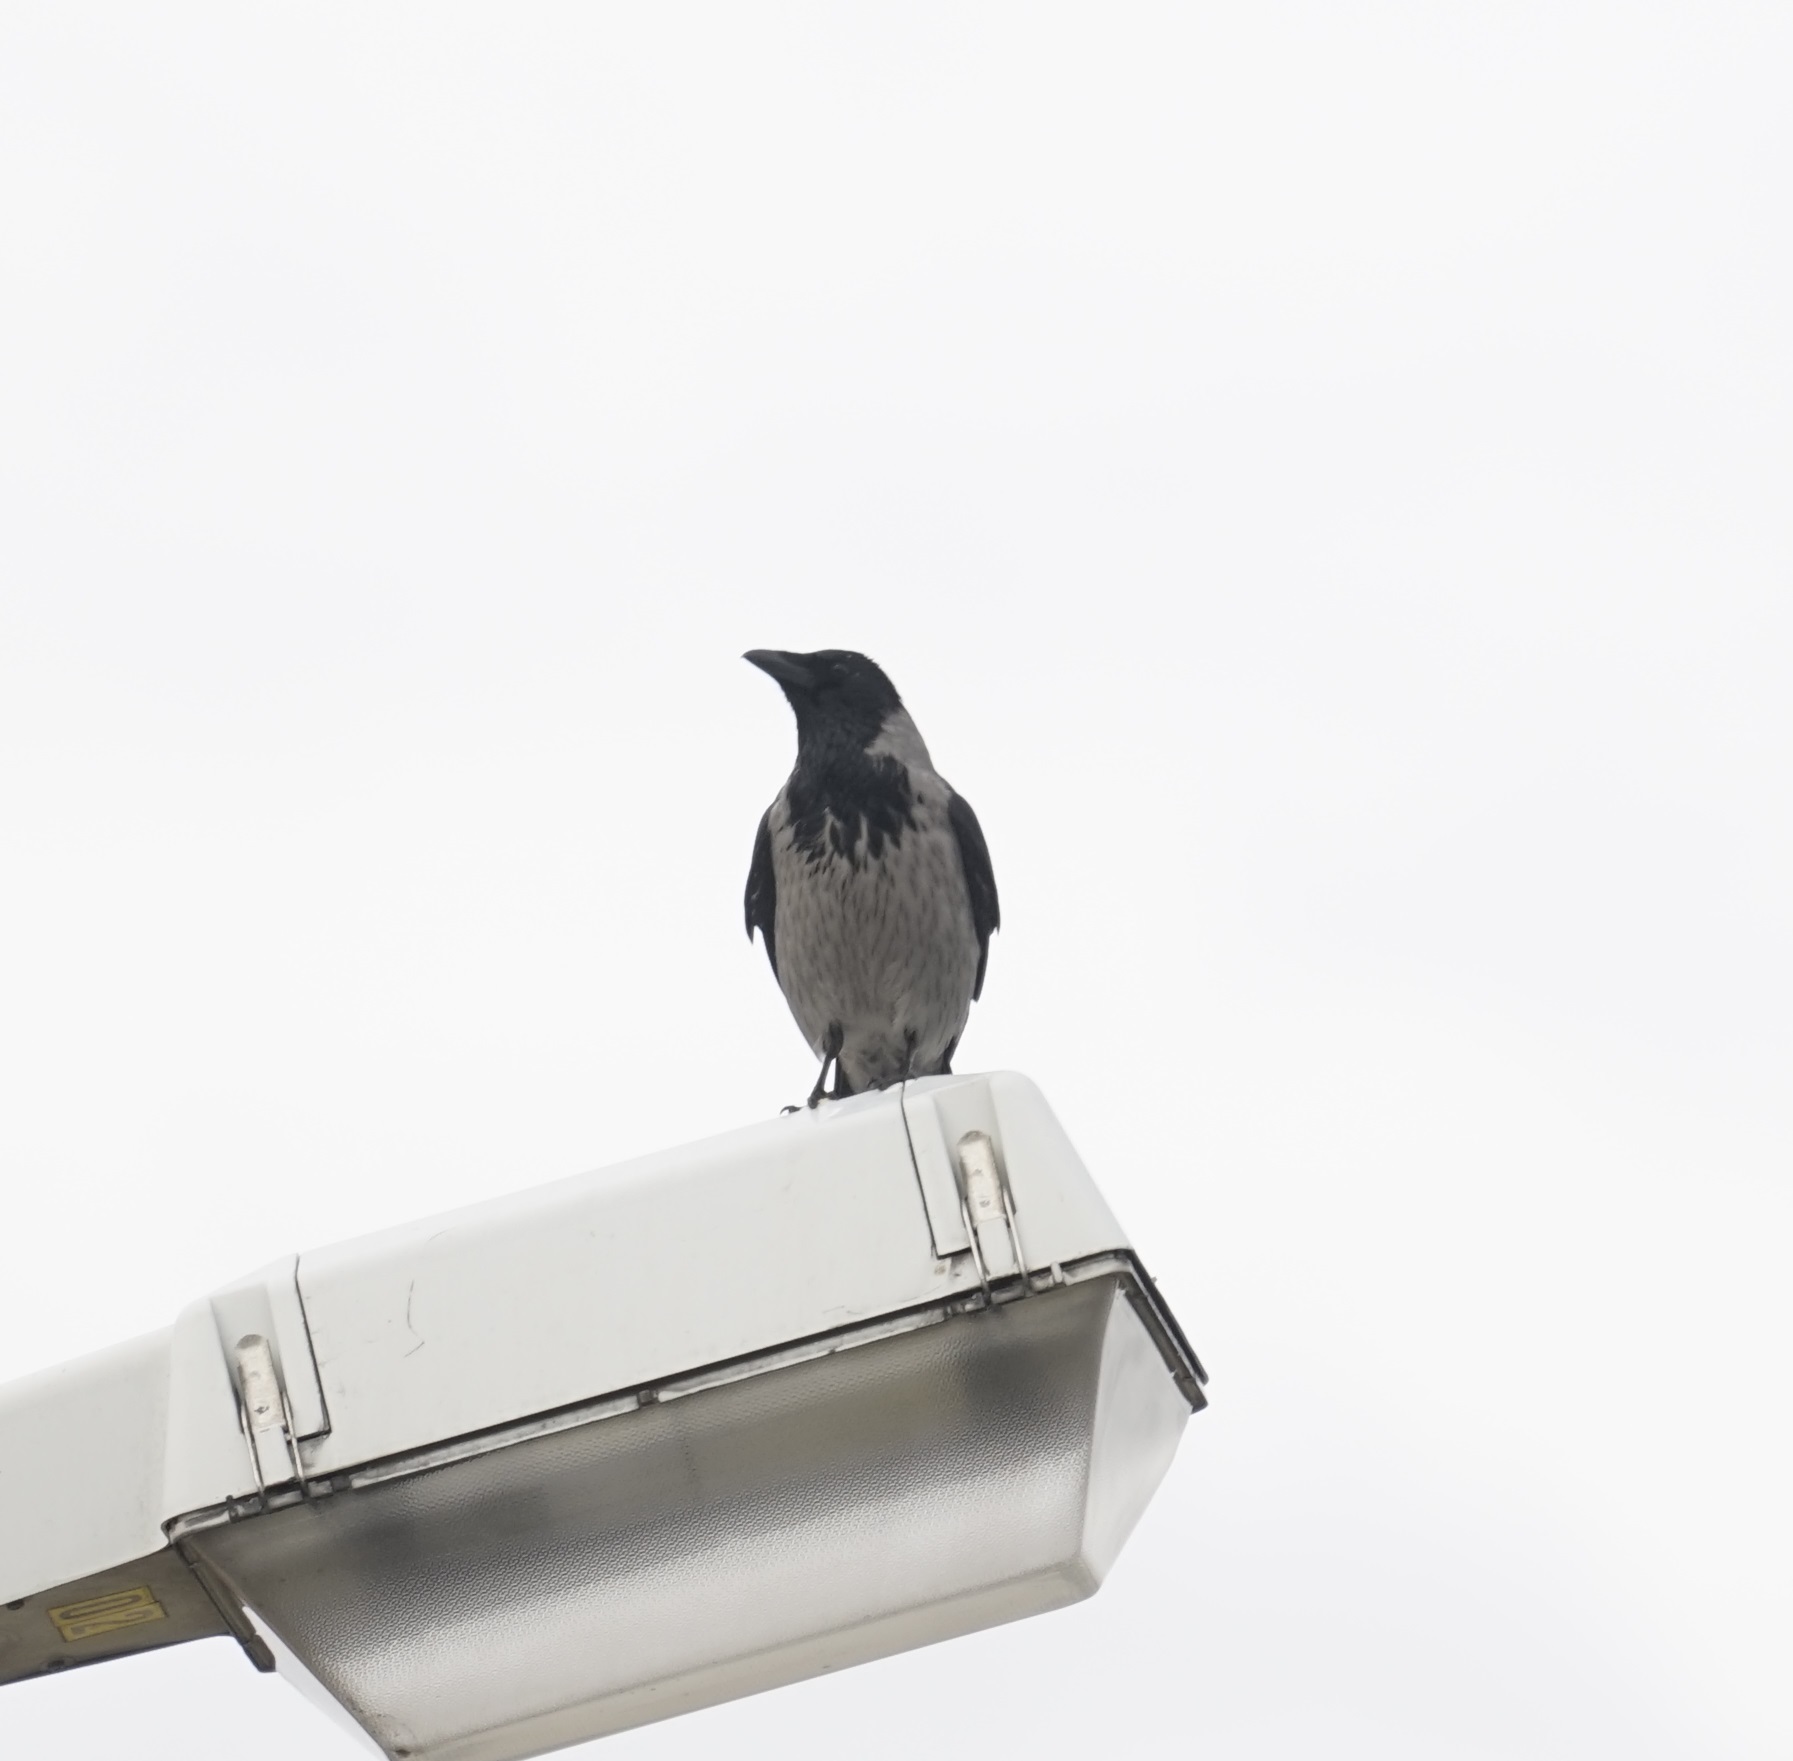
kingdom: Animalia
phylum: Chordata
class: Aves
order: Passeriformes
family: Corvidae
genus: Corvus
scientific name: Corvus cornix
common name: Hooded crow
